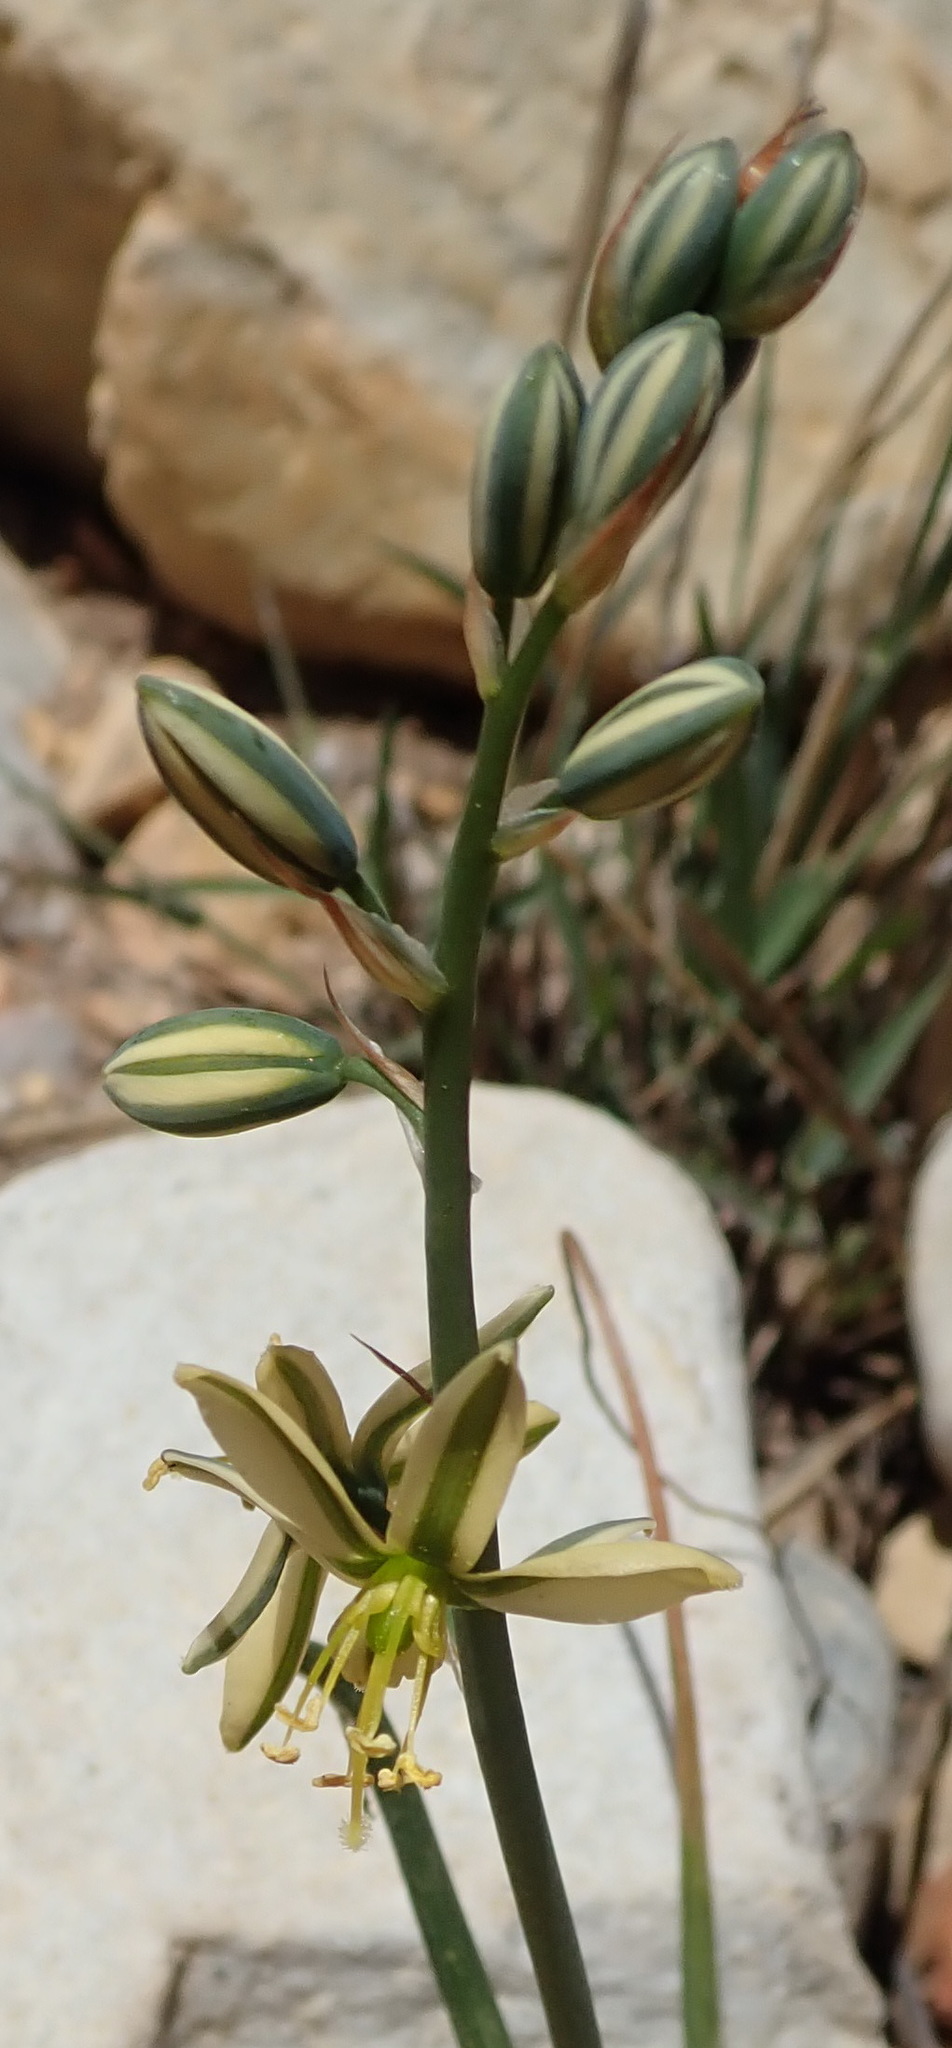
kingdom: Plantae
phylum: Tracheophyta
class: Liliopsida
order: Asparagales
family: Asparagaceae
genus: Albuca
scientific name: Albuca suaveolens
